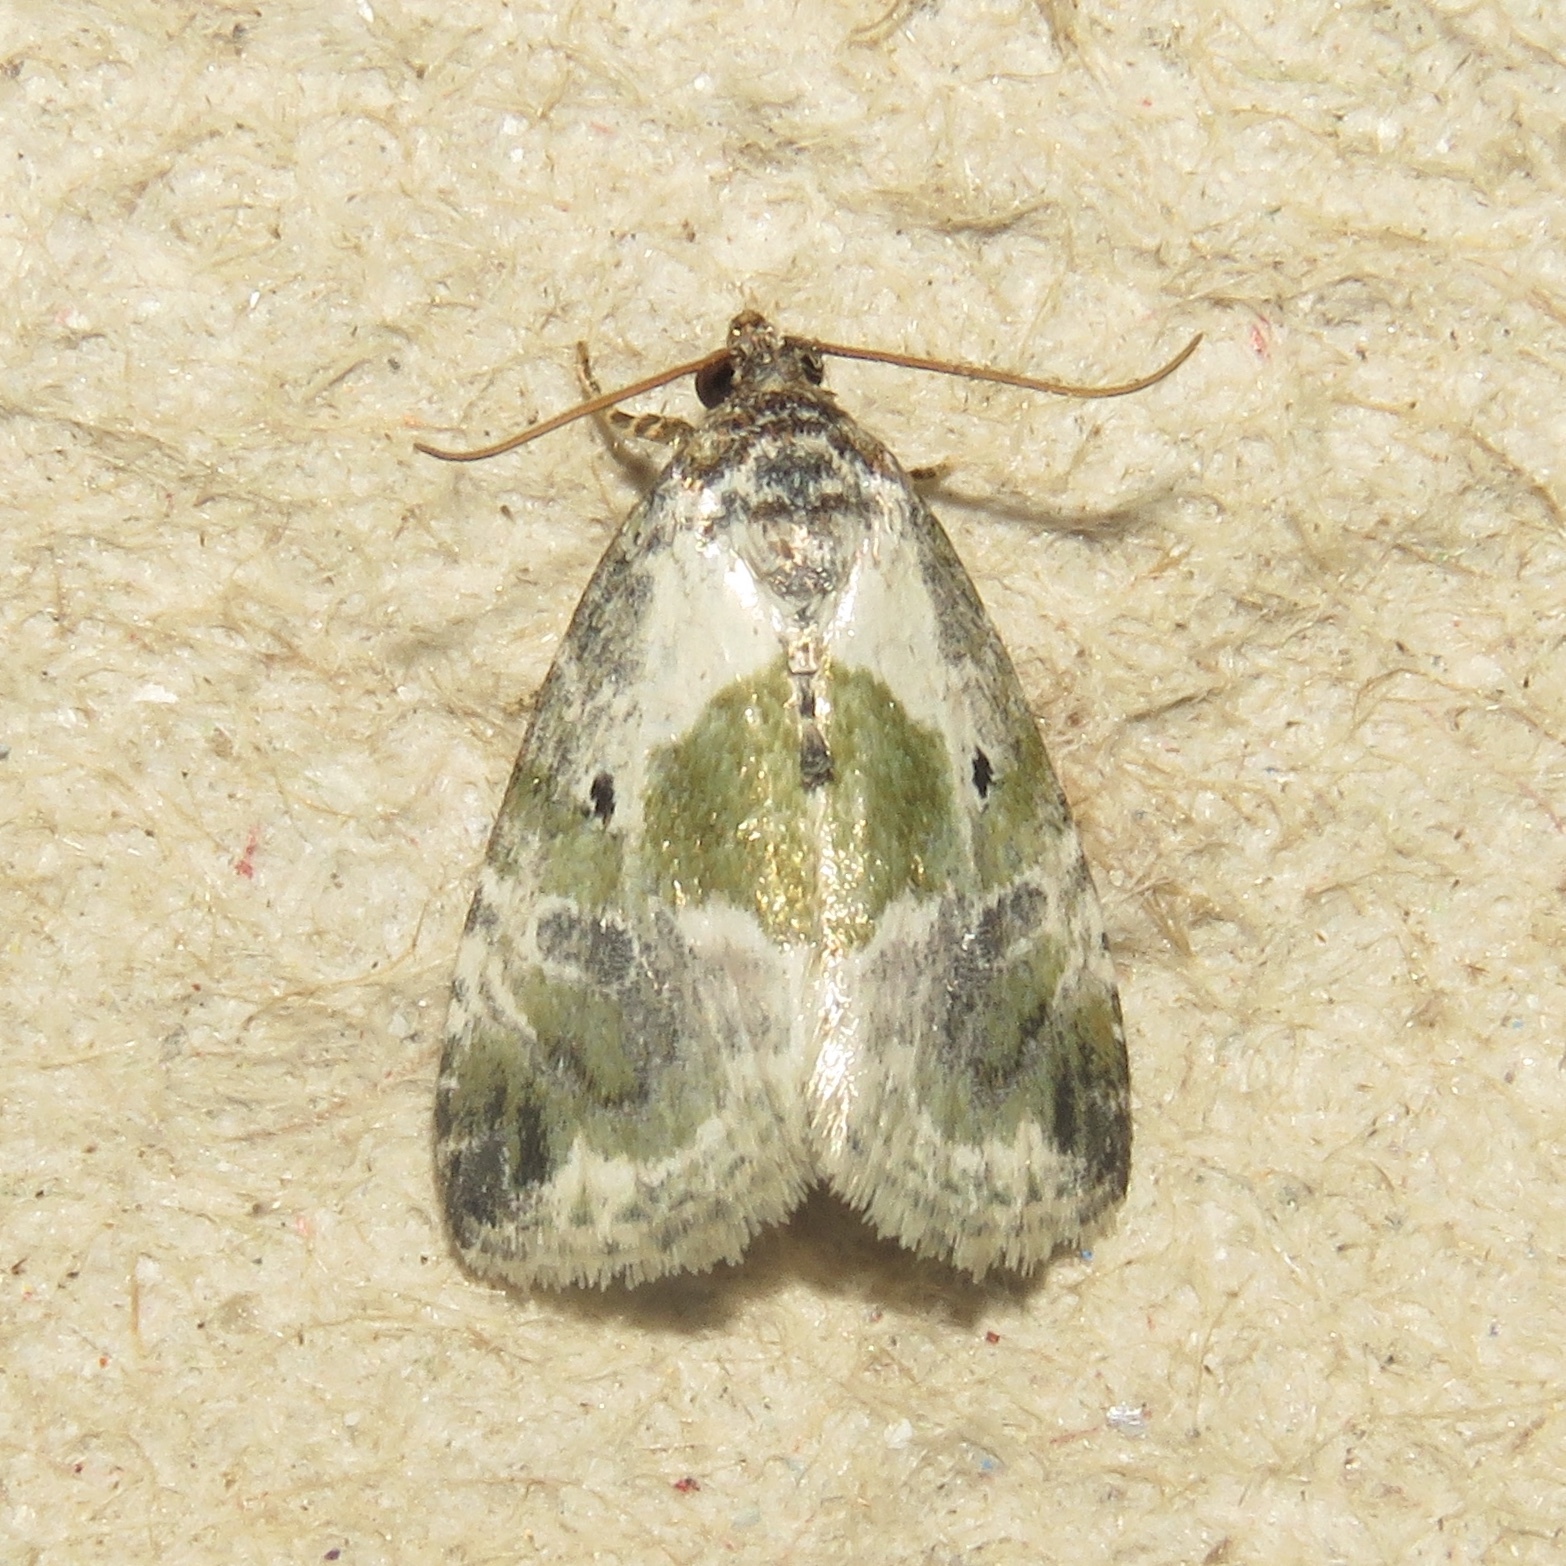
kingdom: Animalia
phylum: Arthropoda
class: Insecta
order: Lepidoptera
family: Noctuidae
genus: Maliattha
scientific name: Maliattha synochitis
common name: Black-dotted glyph
